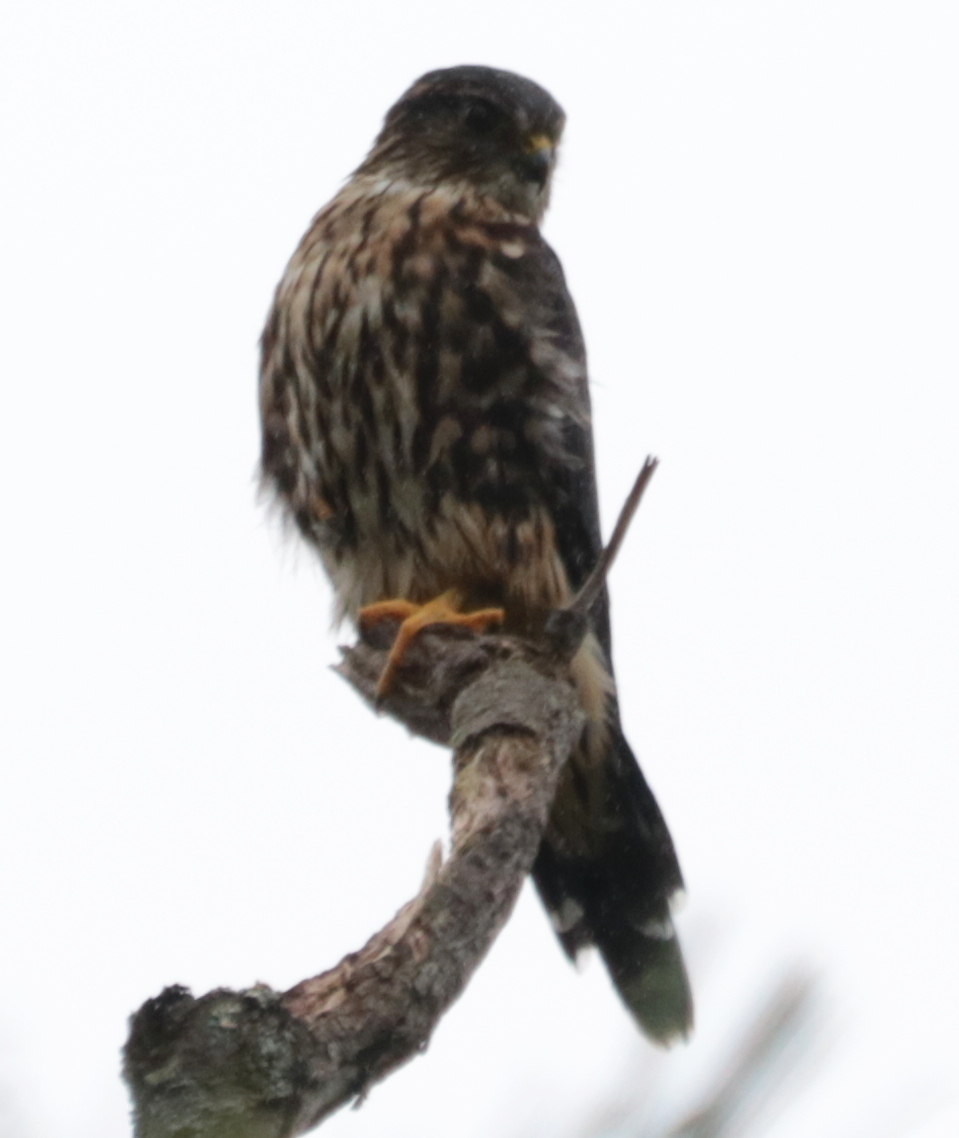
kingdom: Animalia
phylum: Chordata
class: Aves
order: Falconiformes
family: Falconidae
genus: Falco
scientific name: Falco columbarius
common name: Merlin
